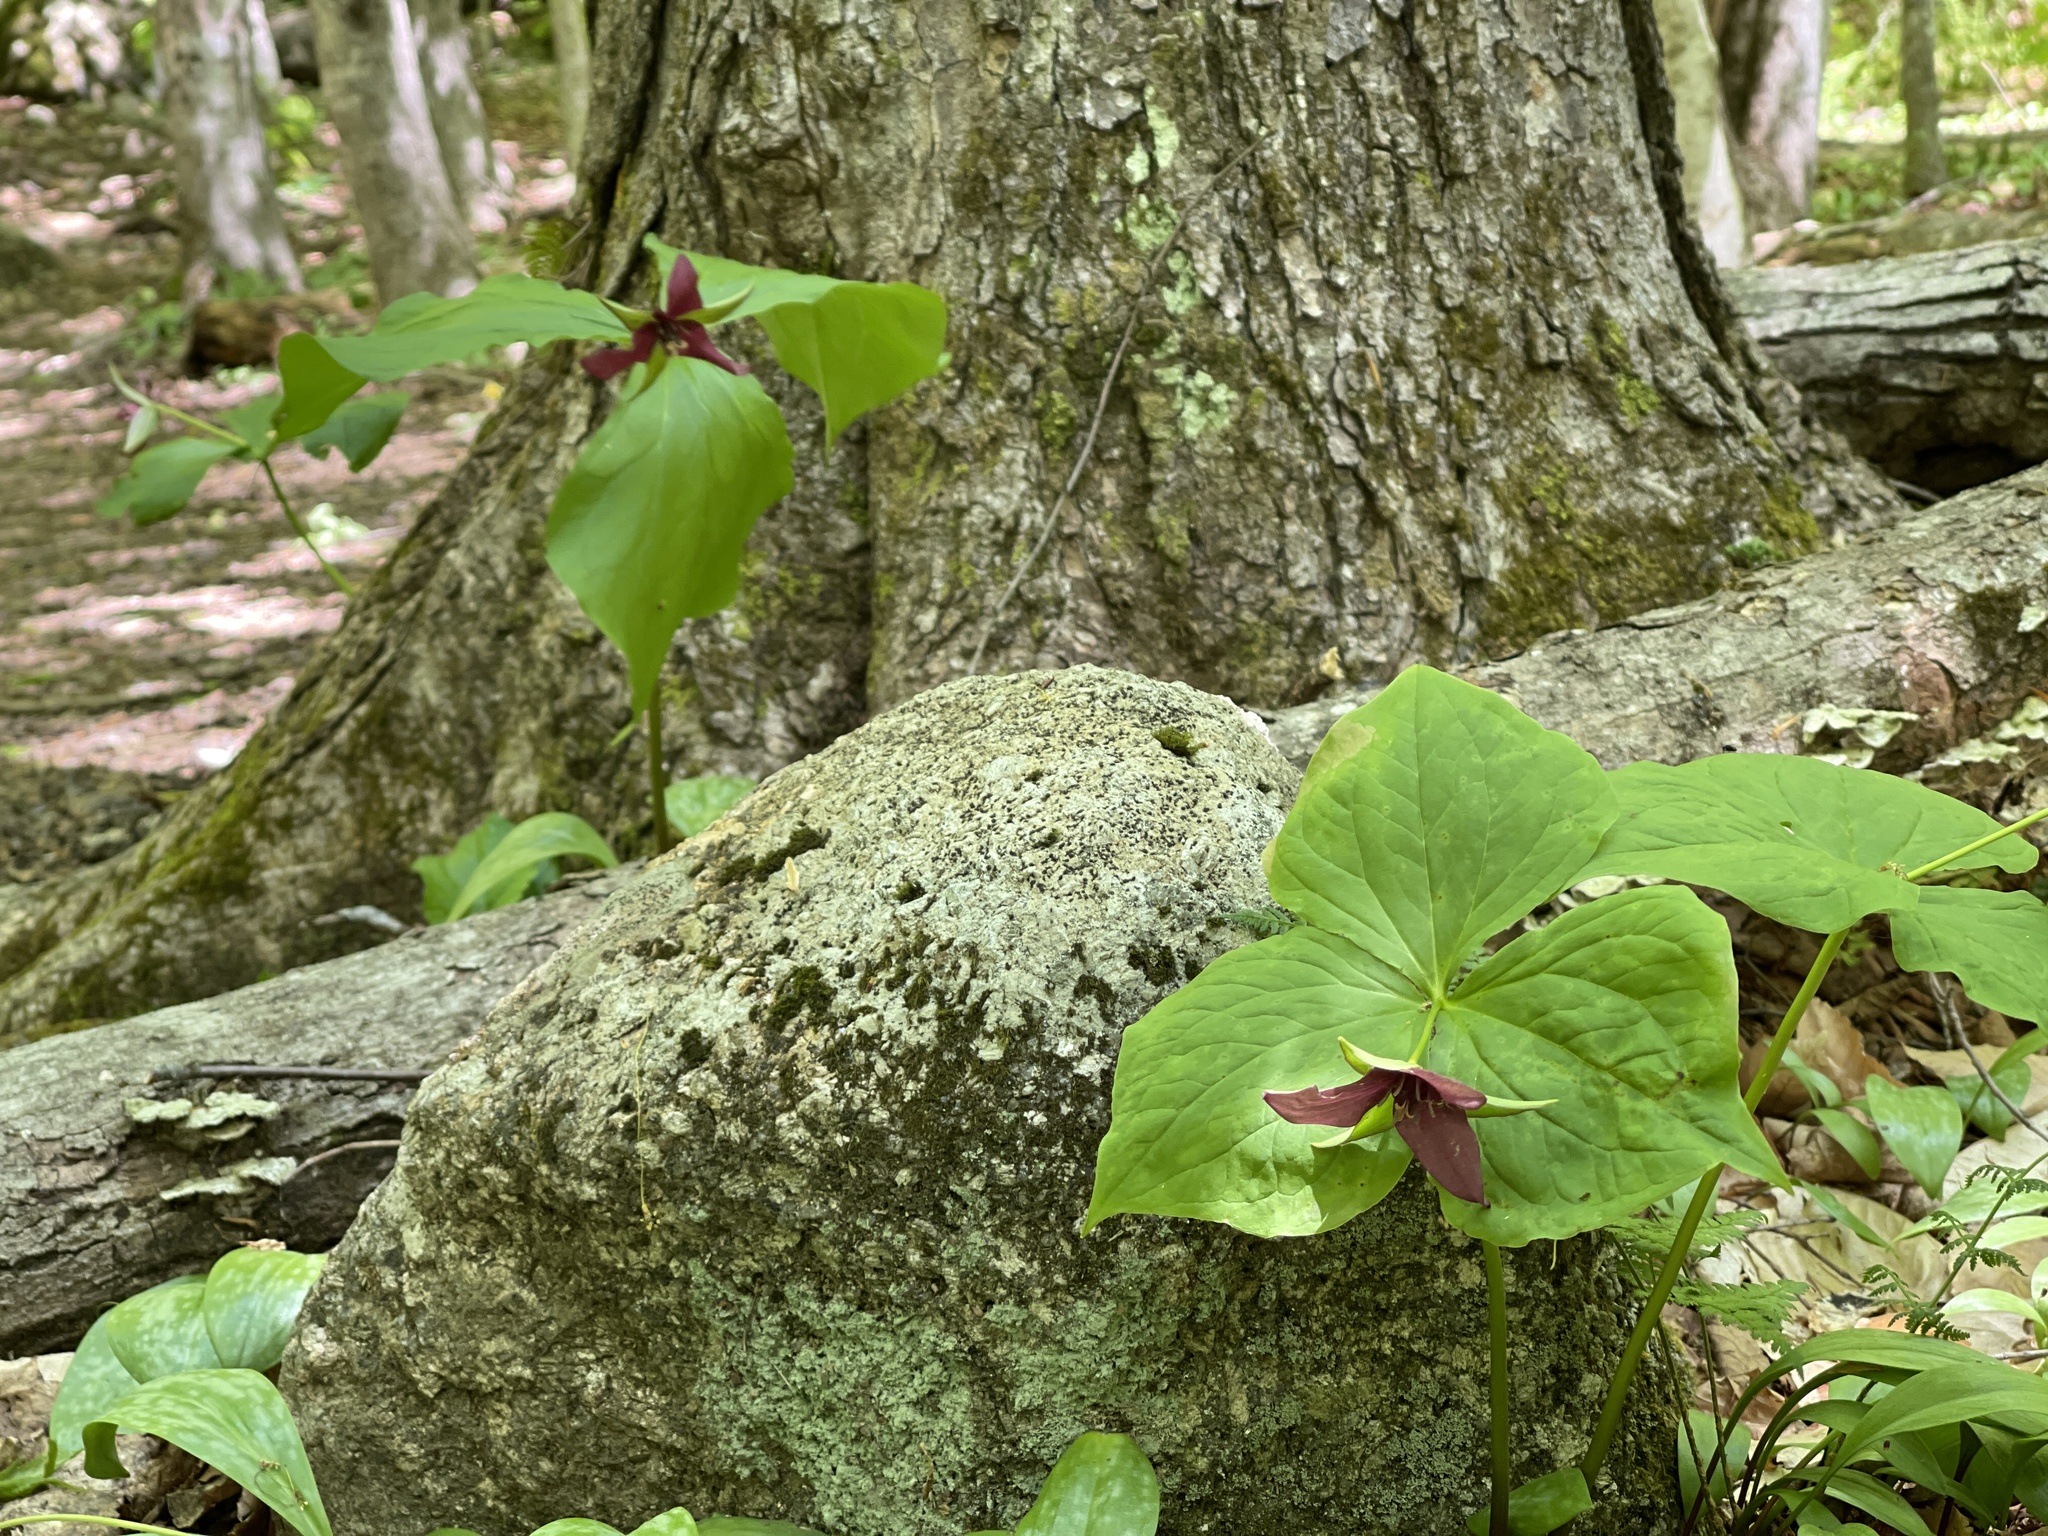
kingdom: Plantae
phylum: Tracheophyta
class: Liliopsida
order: Liliales
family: Melanthiaceae
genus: Trillium
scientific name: Trillium erectum
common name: Purple trillium
